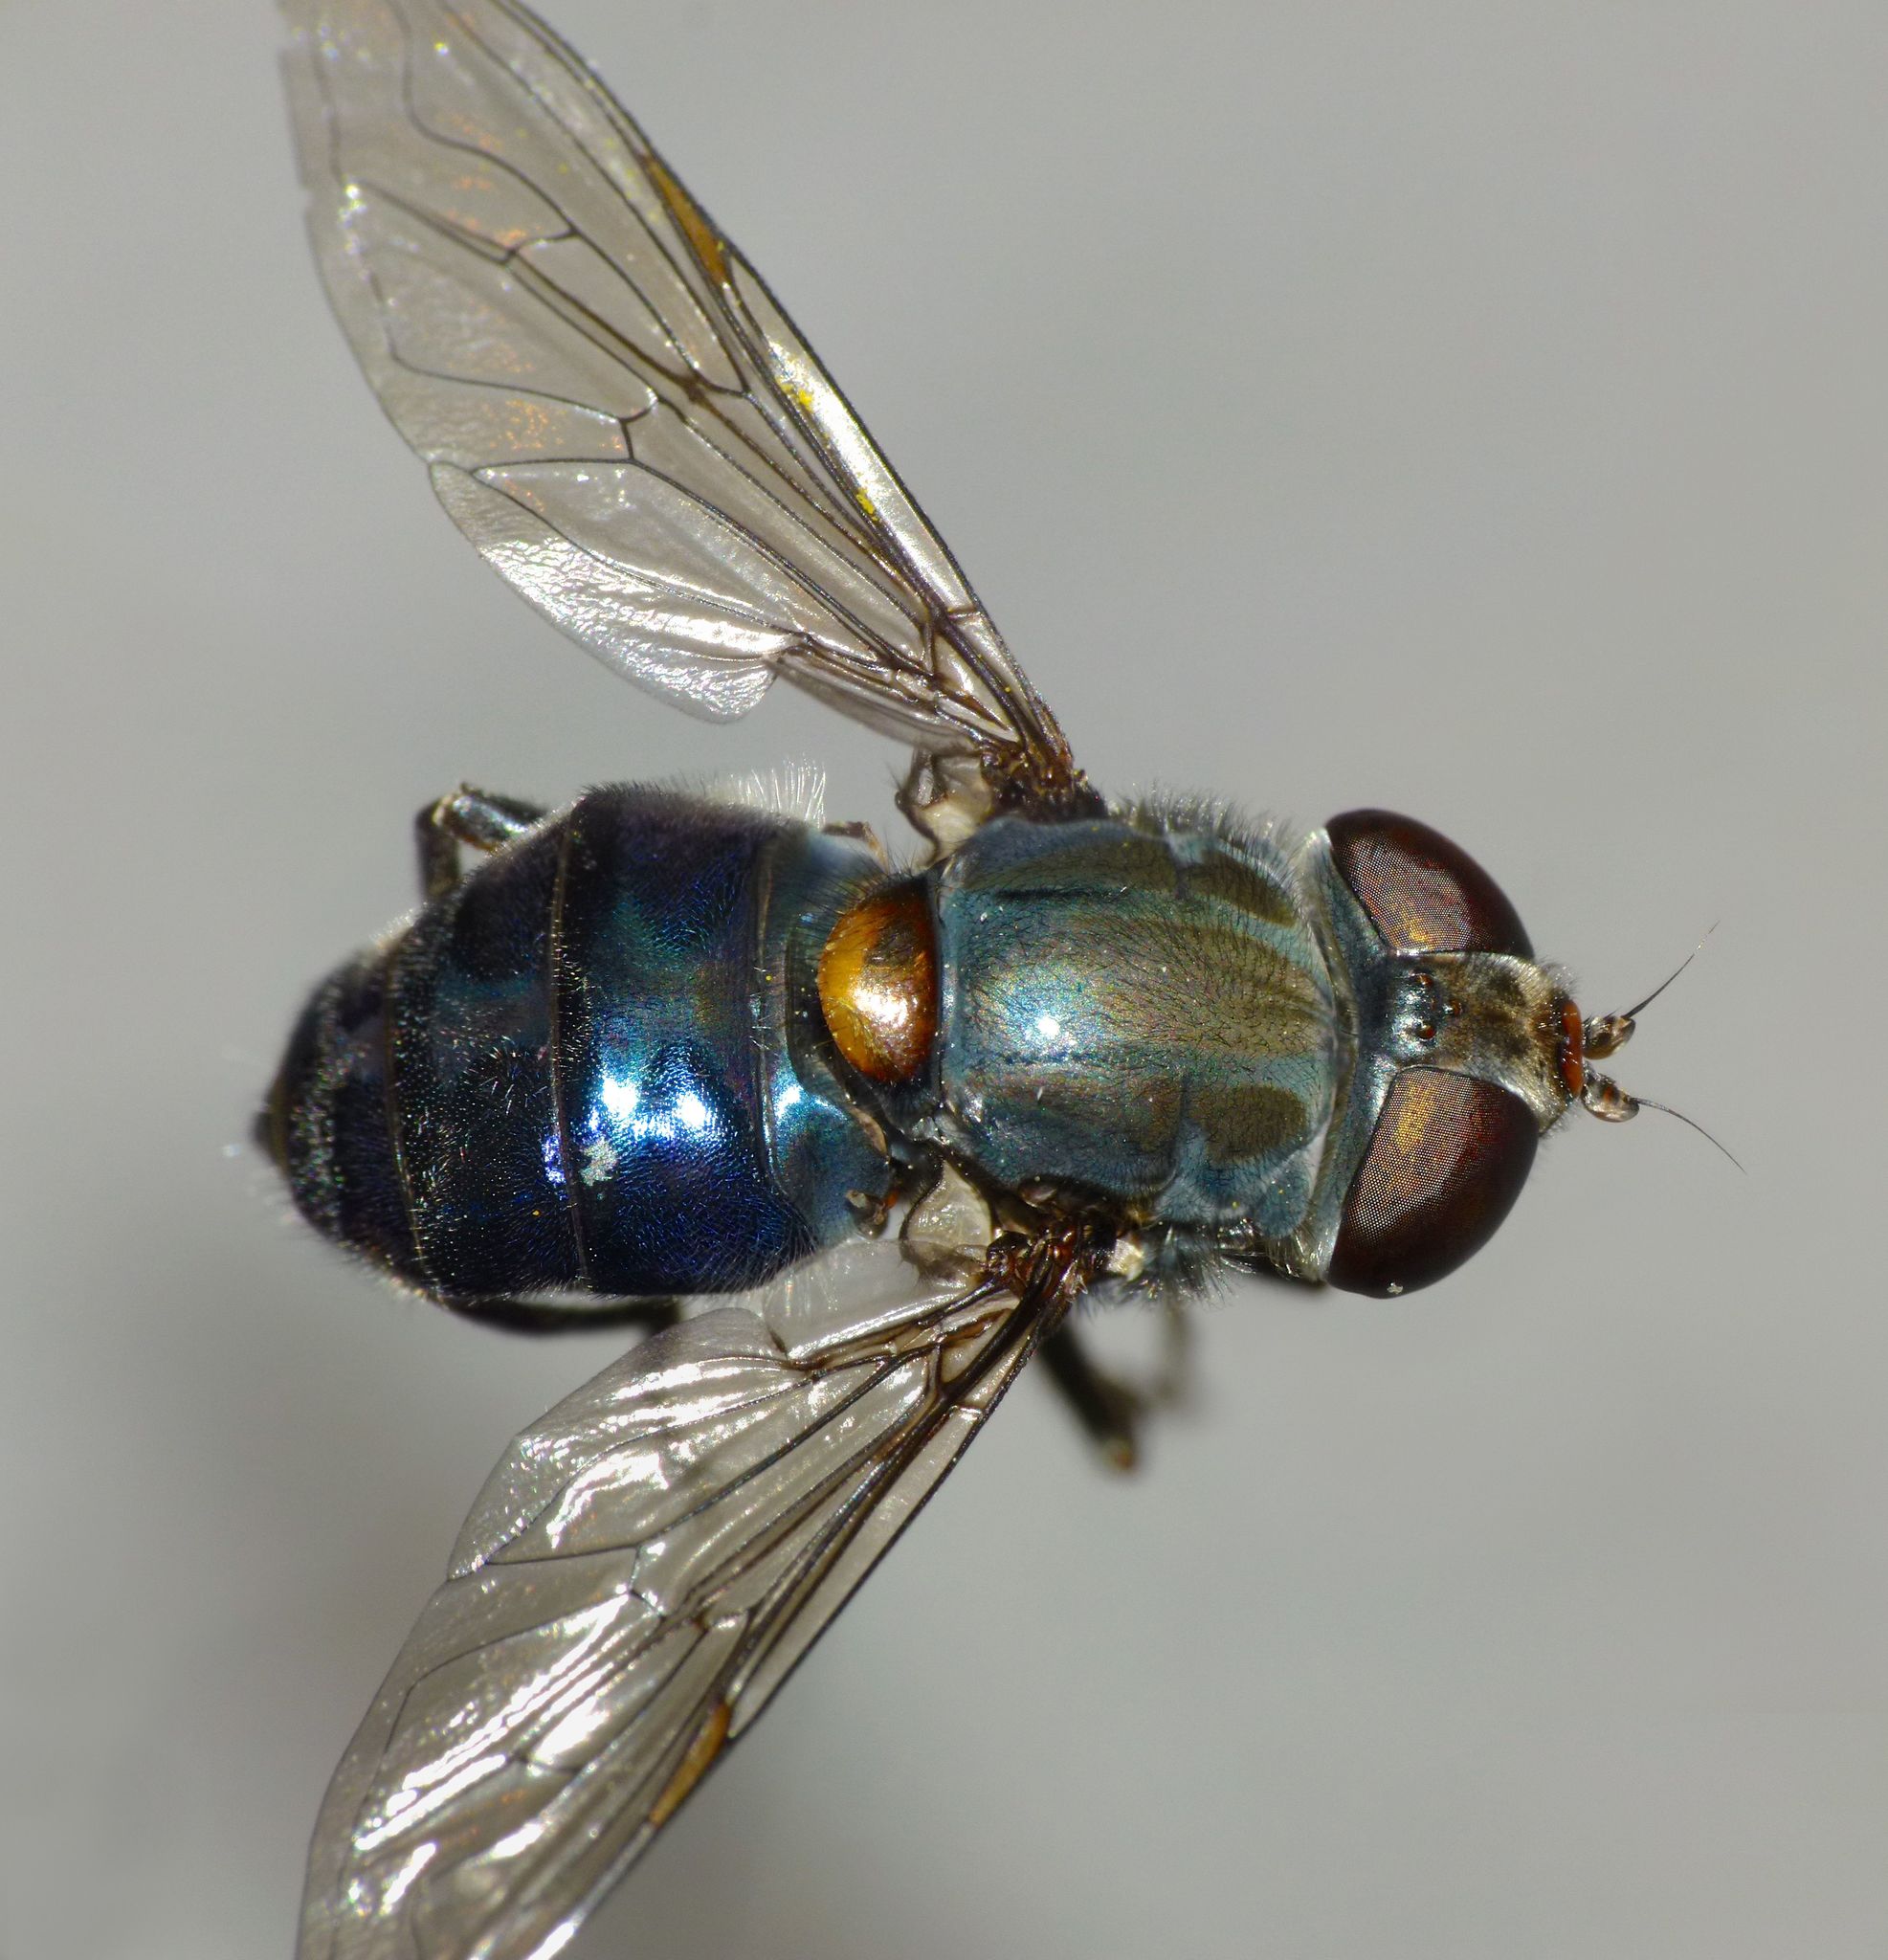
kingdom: Animalia
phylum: Arthropoda
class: Insecta
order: Diptera
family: Syrphidae
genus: Helophilus
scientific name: Helophilus hochstetteri
